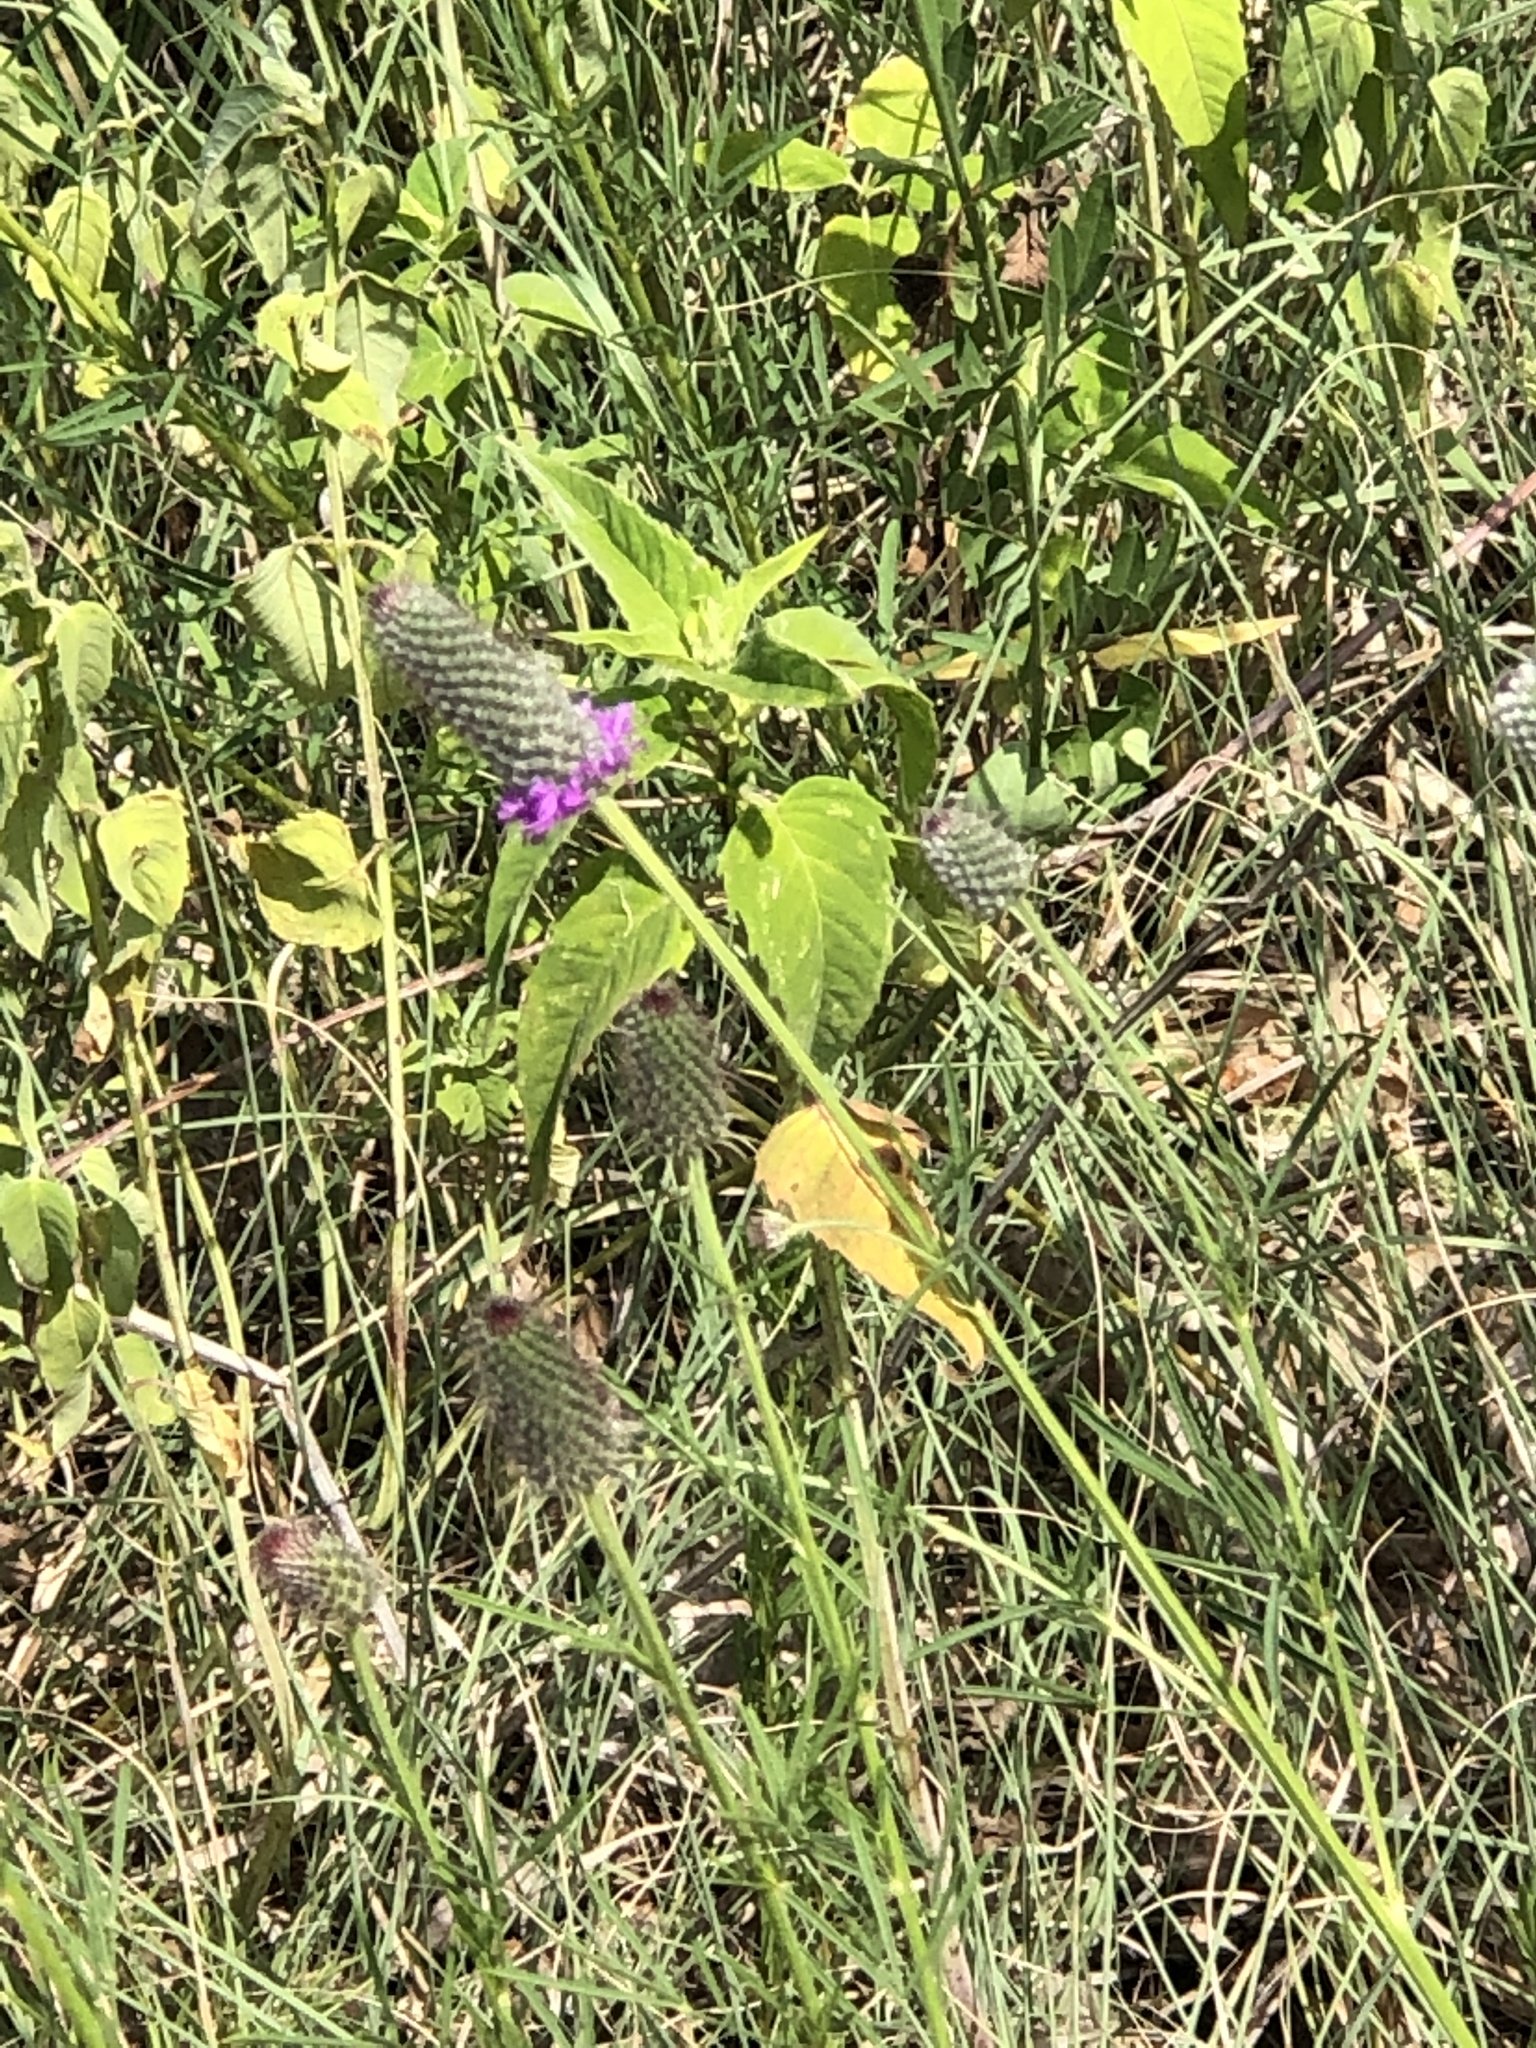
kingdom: Plantae
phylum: Tracheophyta
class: Magnoliopsida
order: Fabales
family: Fabaceae
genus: Dalea
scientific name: Dalea purpurea
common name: Purple prairie-clover
